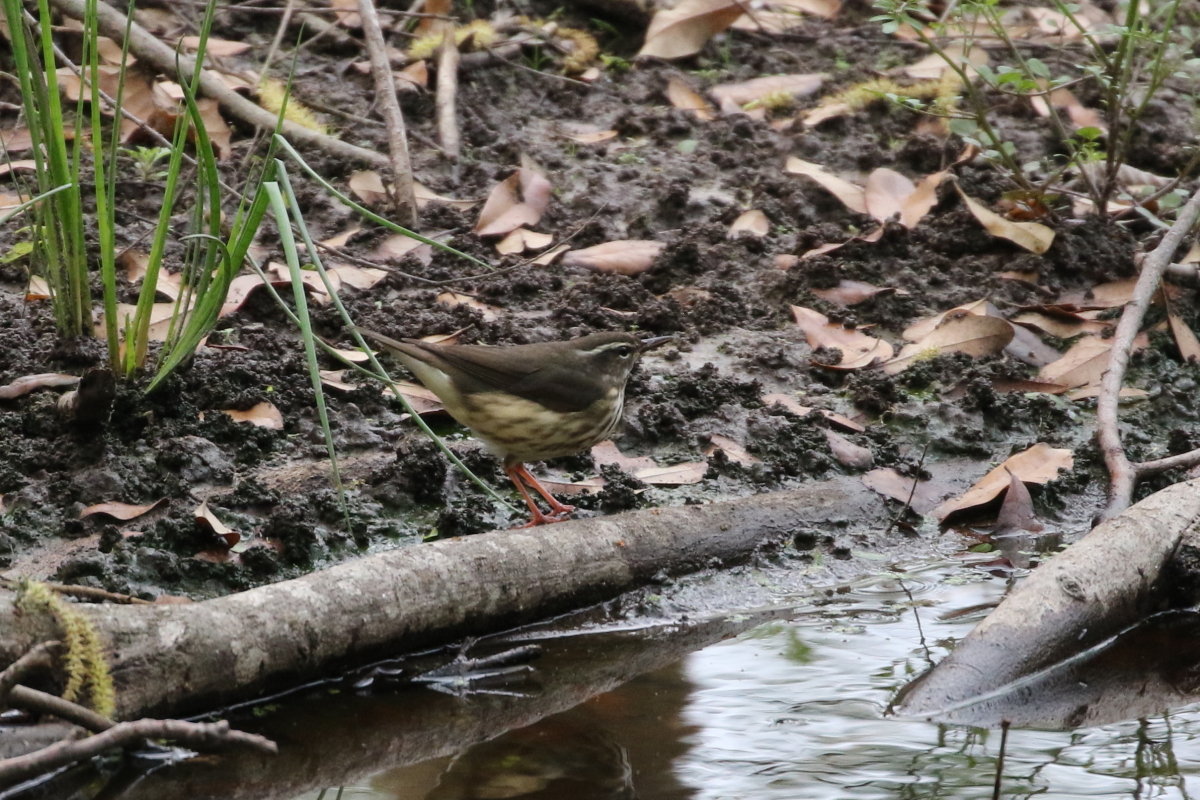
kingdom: Animalia
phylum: Chordata
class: Aves
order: Passeriformes
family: Parulidae
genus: Parkesia
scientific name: Parkesia motacilla
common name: Louisiana waterthrush
